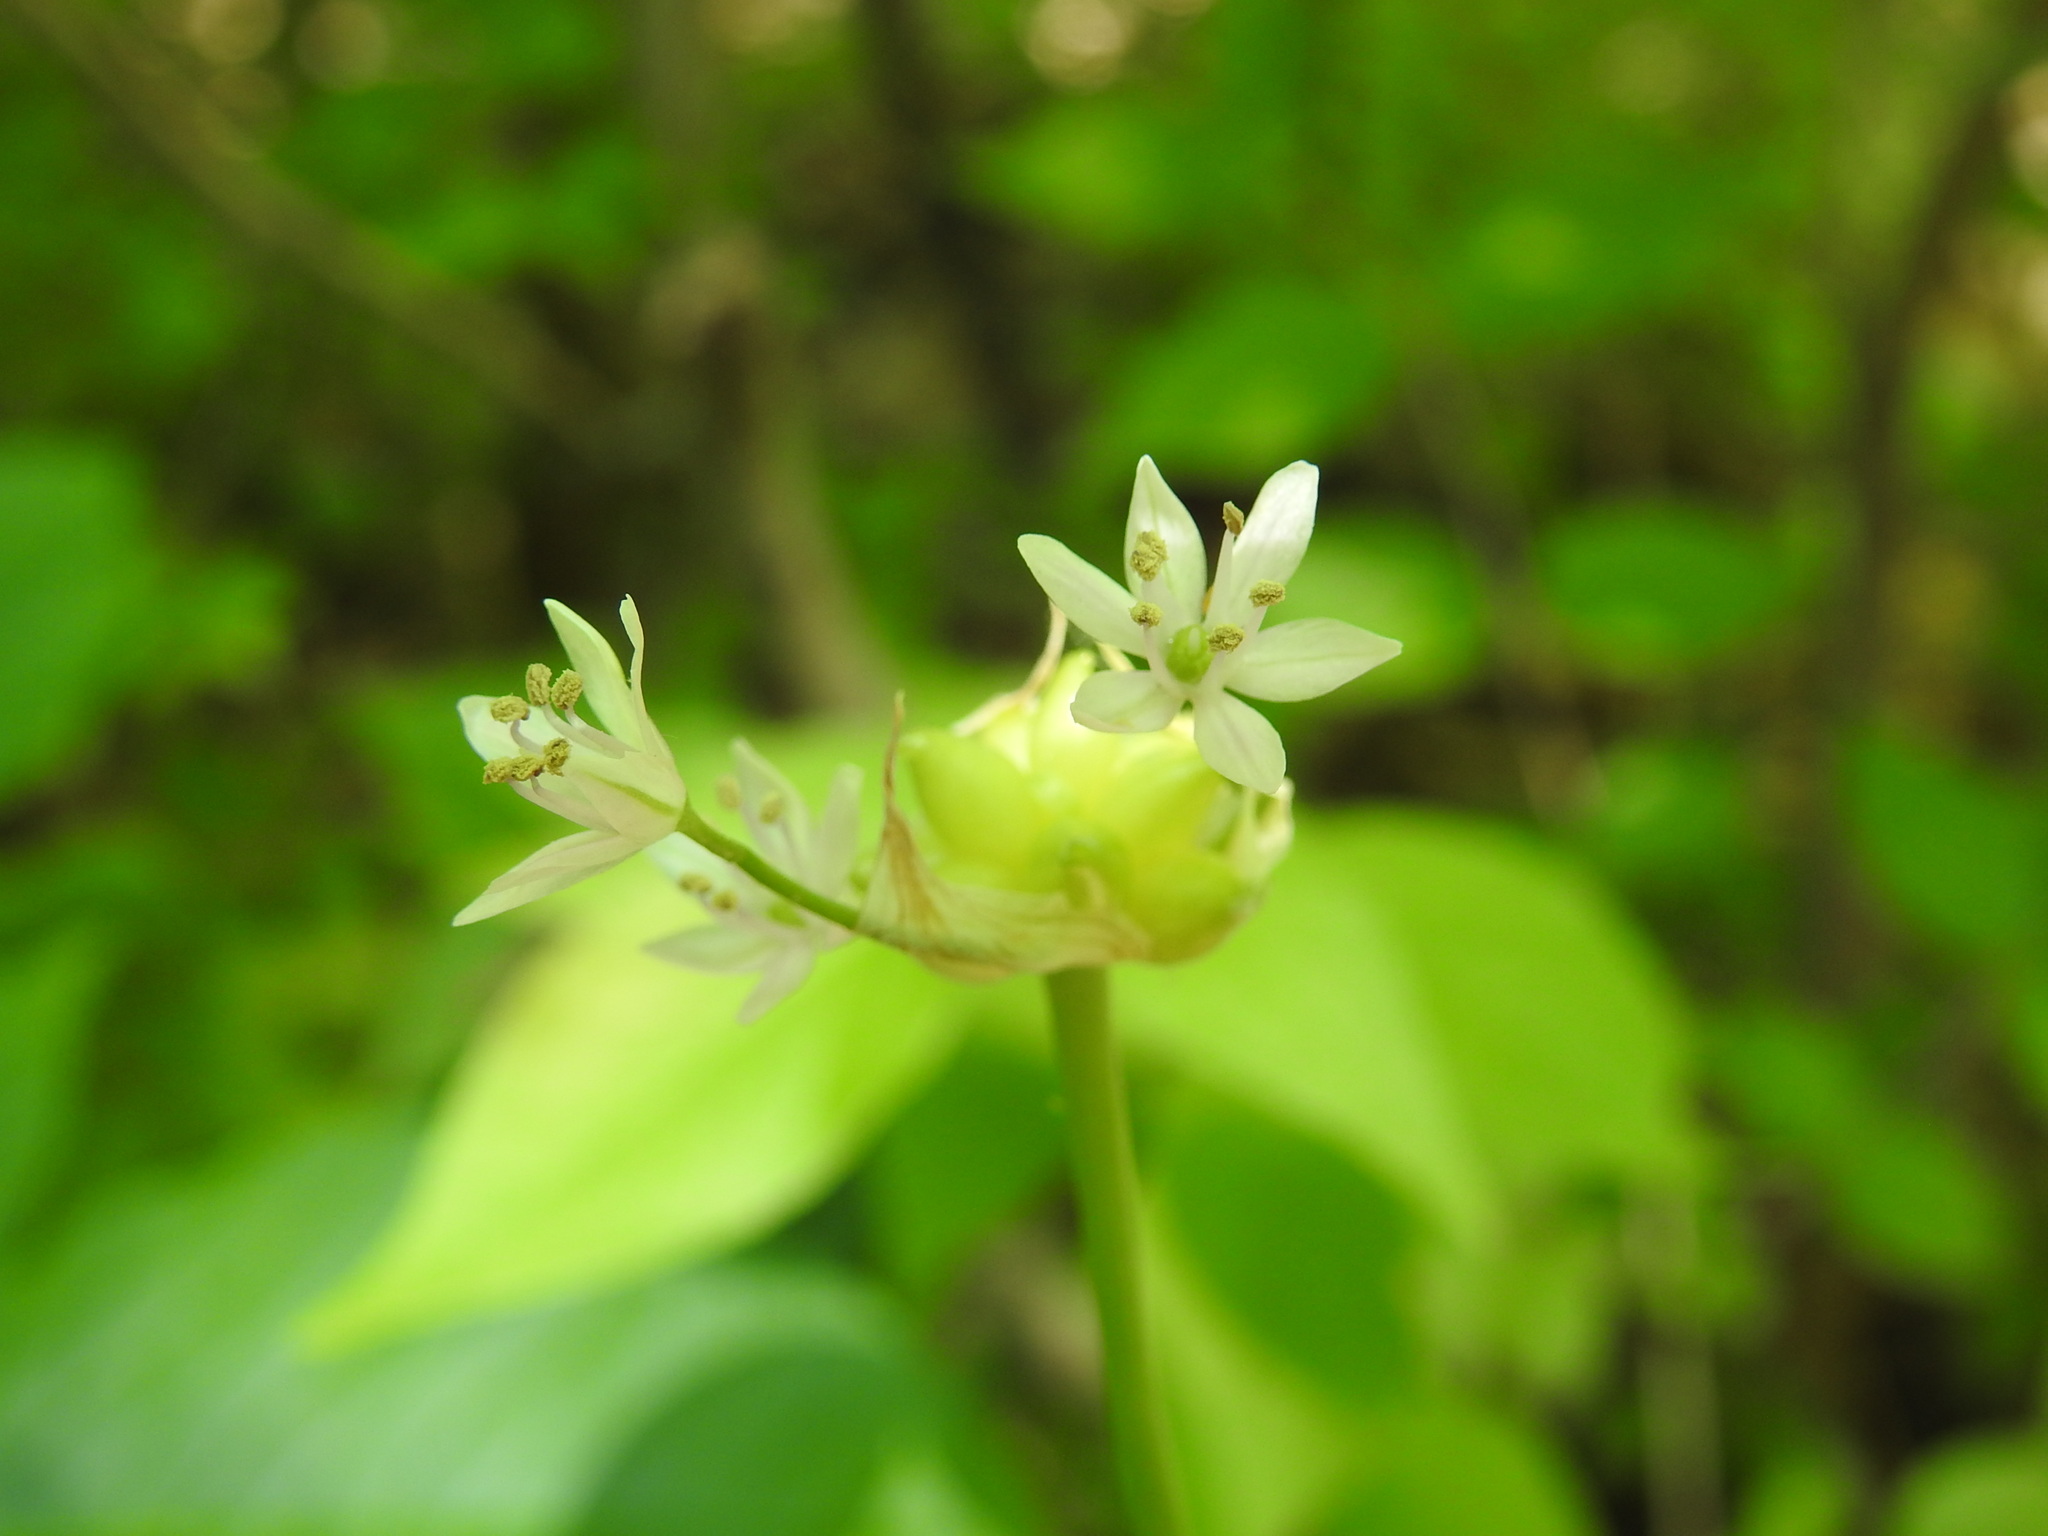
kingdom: Plantae
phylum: Tracheophyta
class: Liliopsida
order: Asparagales
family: Amaryllidaceae
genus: Allium
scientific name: Allium canadense
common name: Meadow garlic
